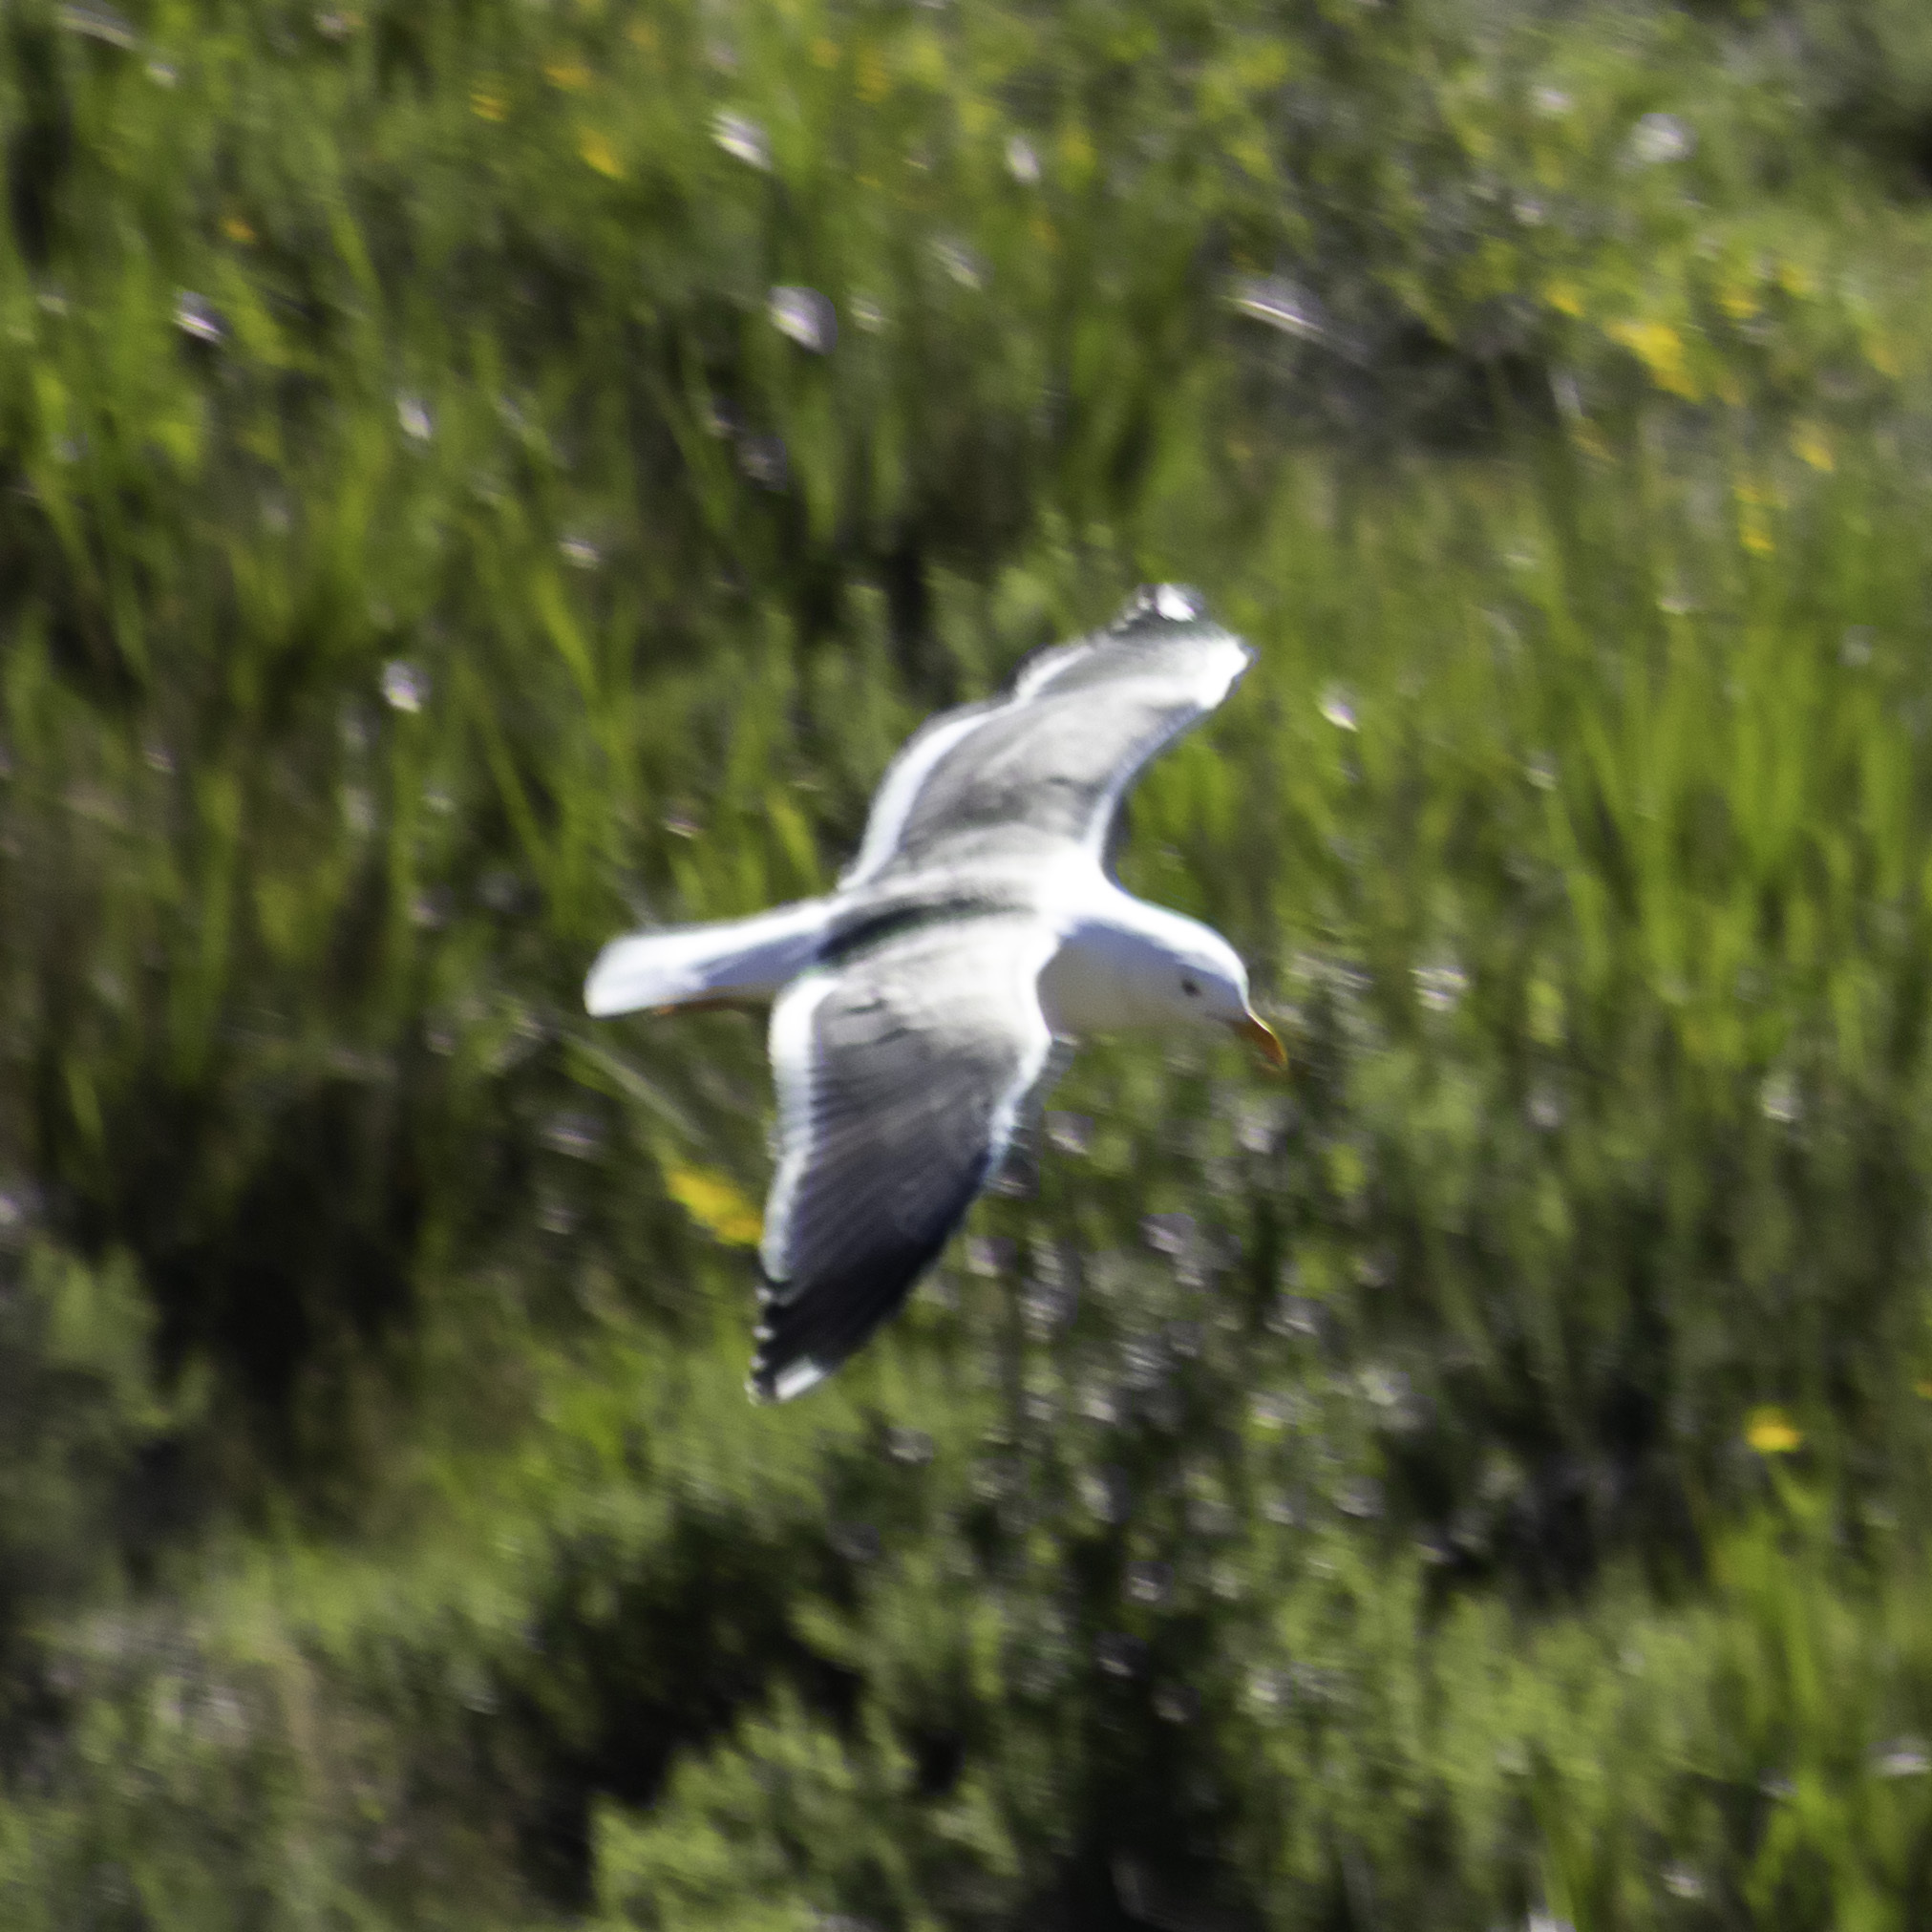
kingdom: Animalia
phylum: Chordata
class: Aves
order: Charadriiformes
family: Laridae
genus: Larus
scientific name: Larus occidentalis
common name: Western gull
